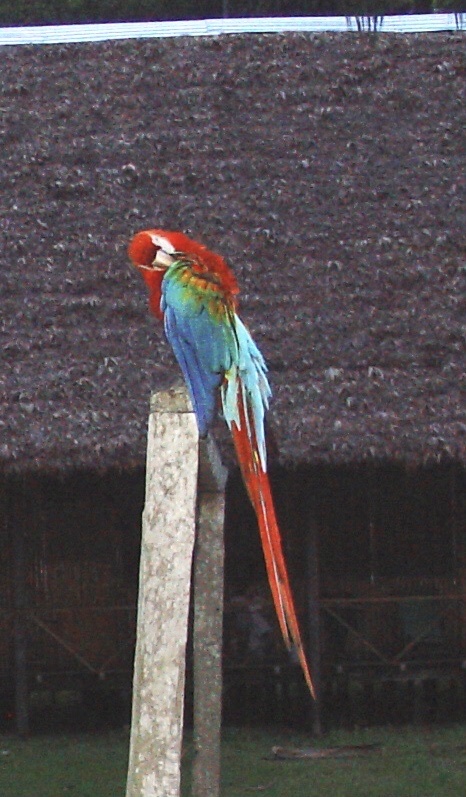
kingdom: Animalia
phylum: Chordata
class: Aves
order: Psittaciformes
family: Psittacidae
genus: Ara
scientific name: Ara chloropterus
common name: Red-and-green macaw
